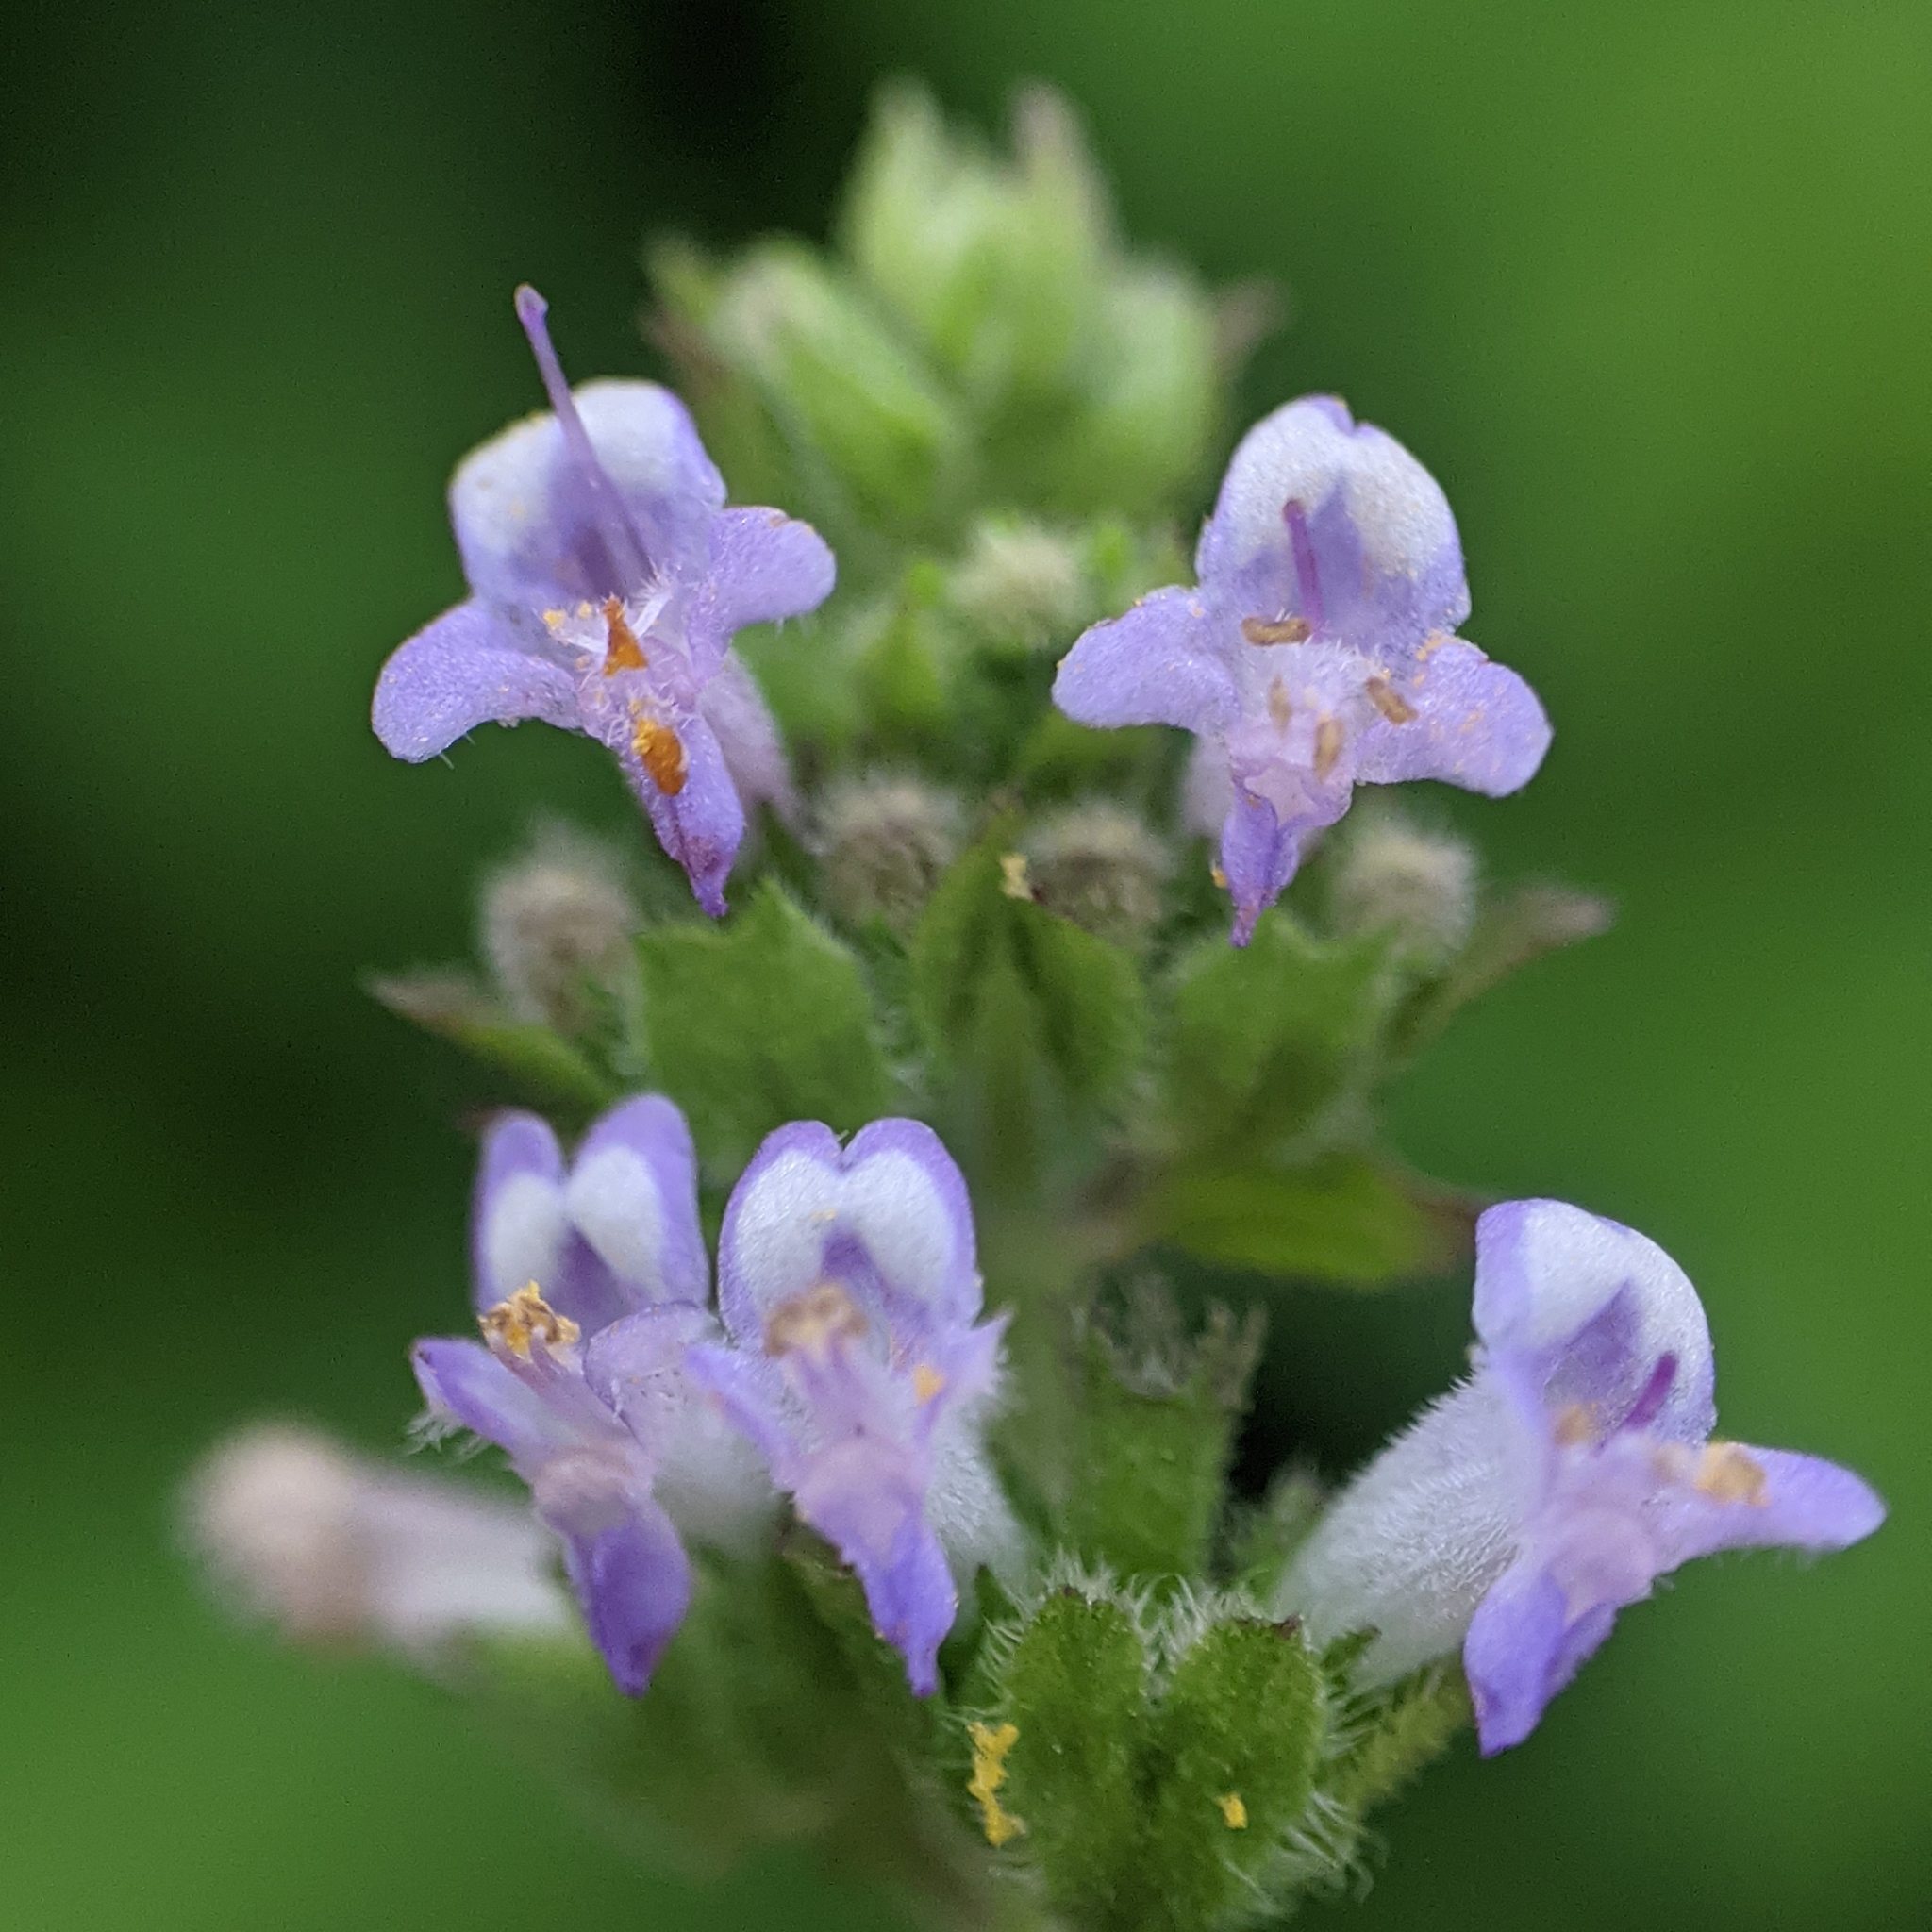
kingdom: Plantae
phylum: Tracheophyta
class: Magnoliopsida
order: Lamiales
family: Lamiaceae
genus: Cantinoa
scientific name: Cantinoa mutabilis
